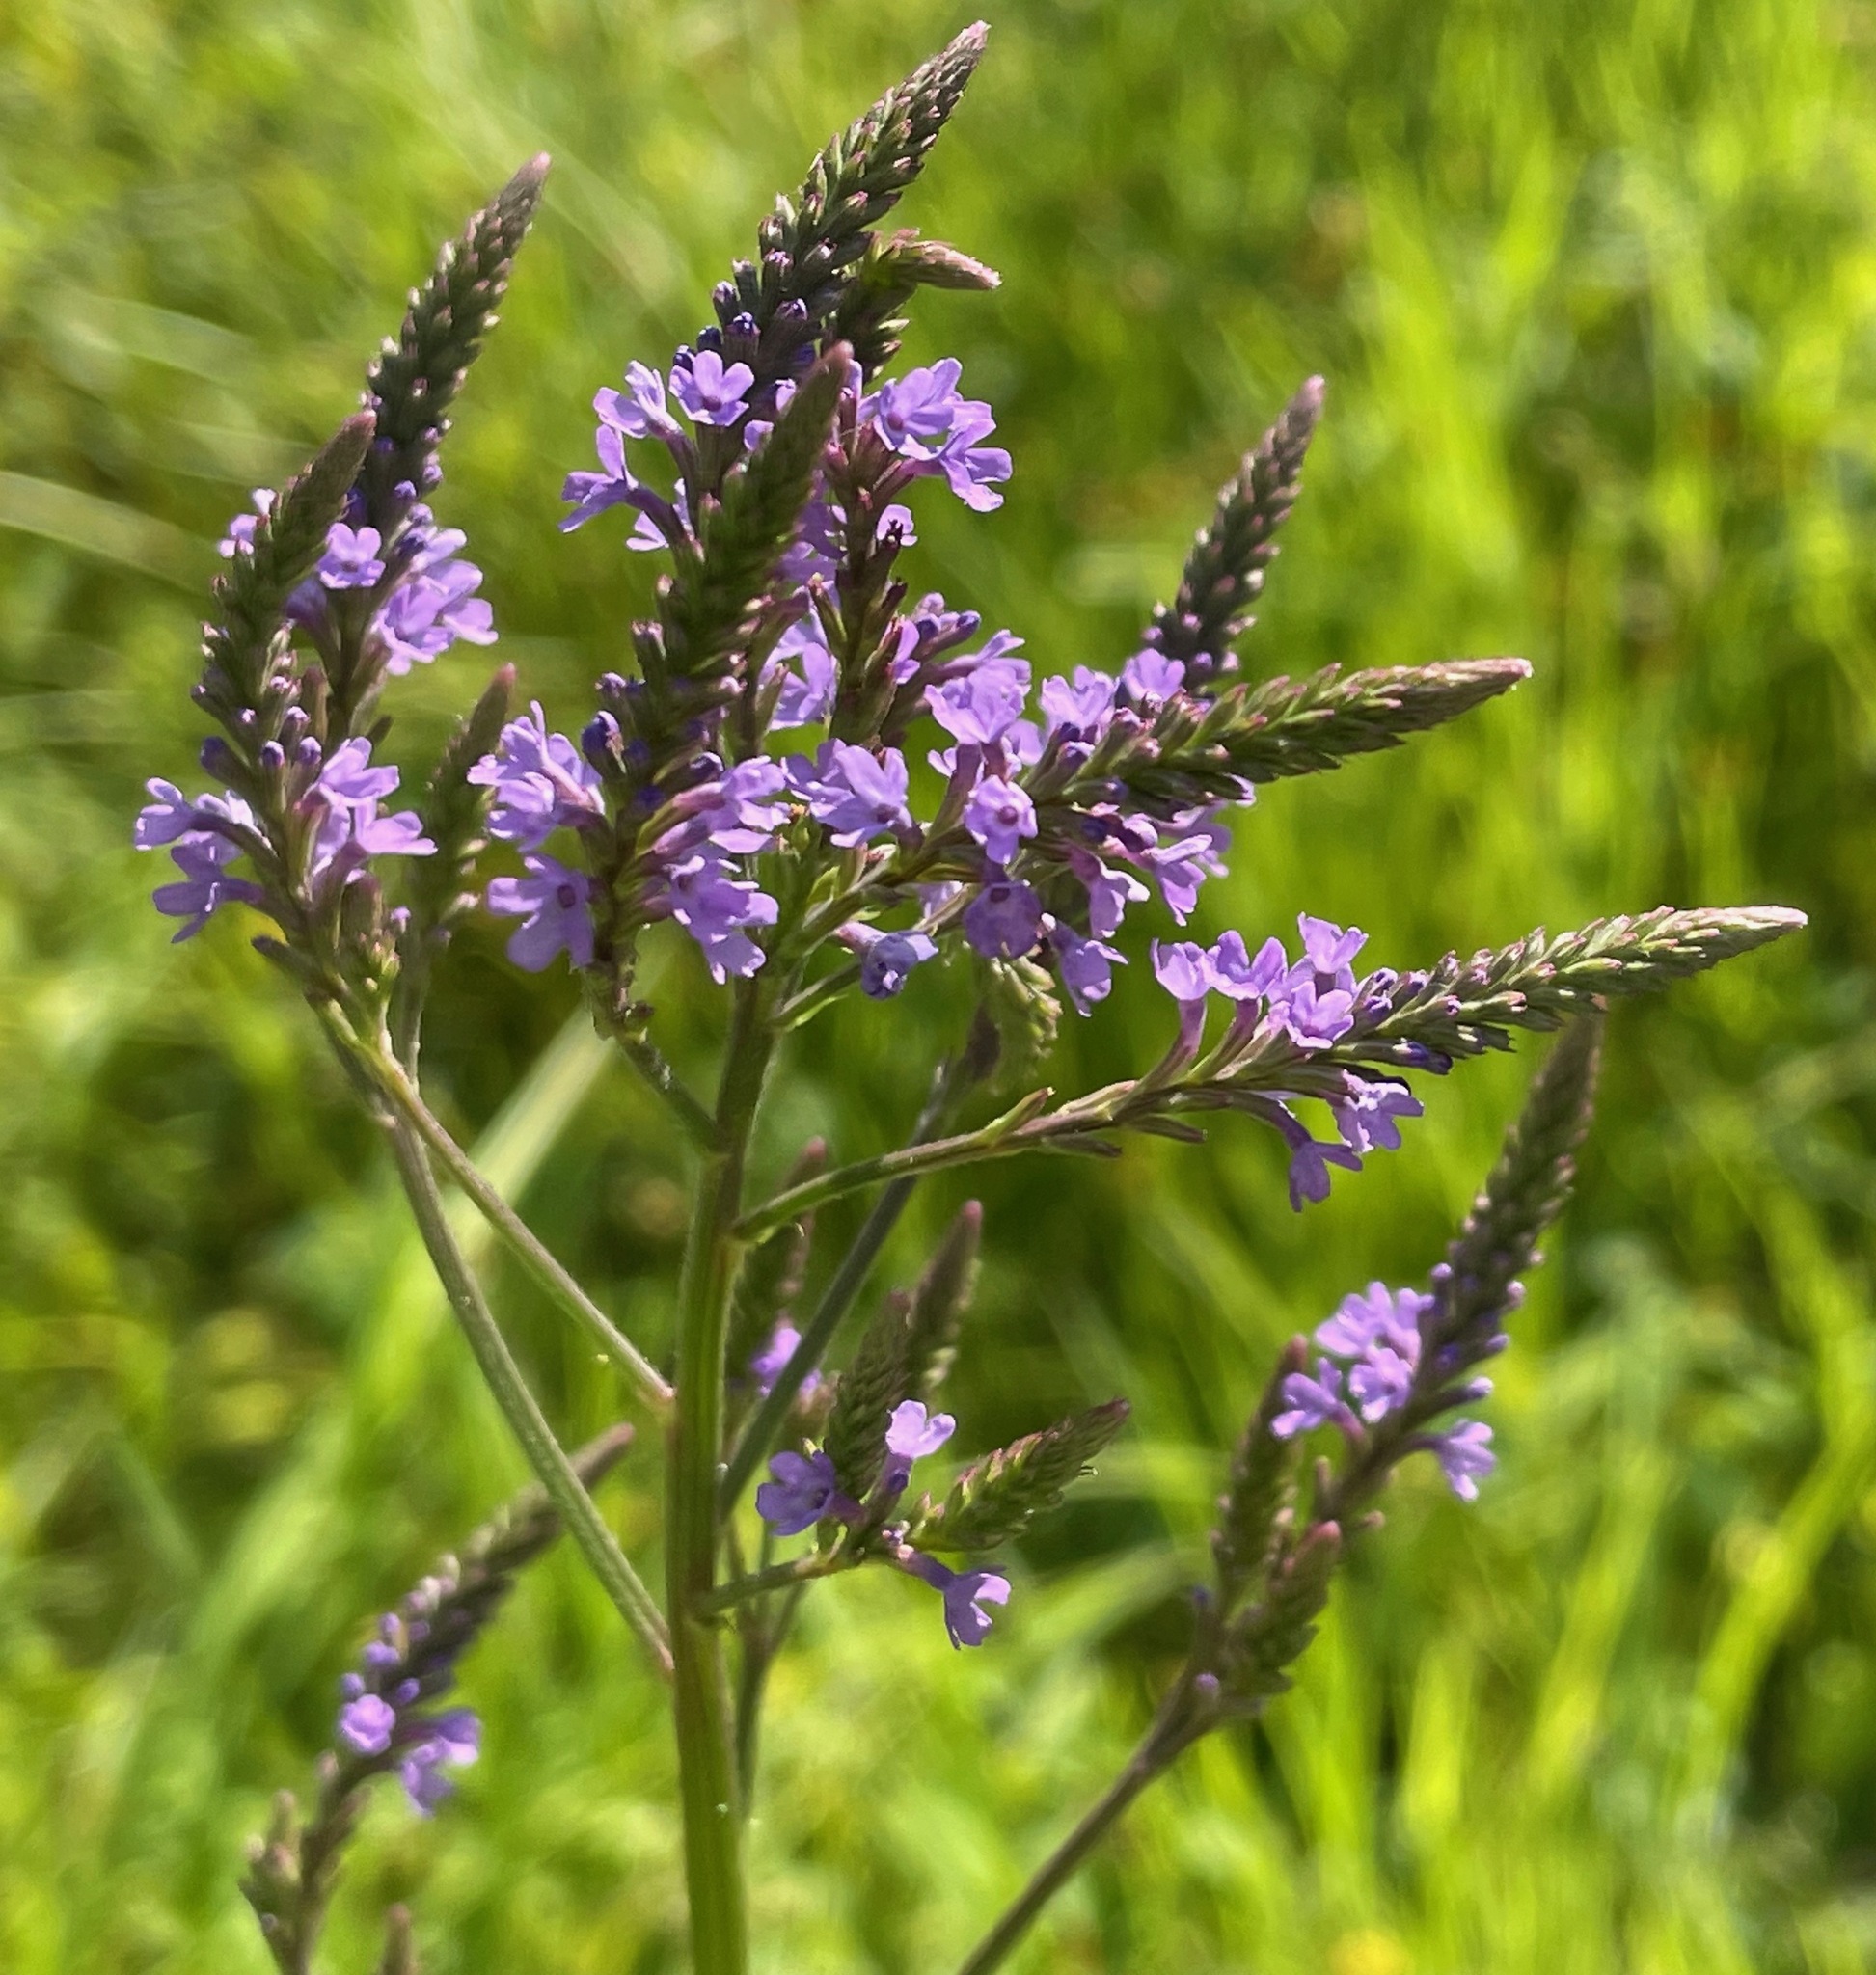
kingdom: Plantae
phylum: Tracheophyta
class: Magnoliopsida
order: Lamiales
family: Verbenaceae
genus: Verbena
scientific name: Verbena hastata
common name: American blue vervain
